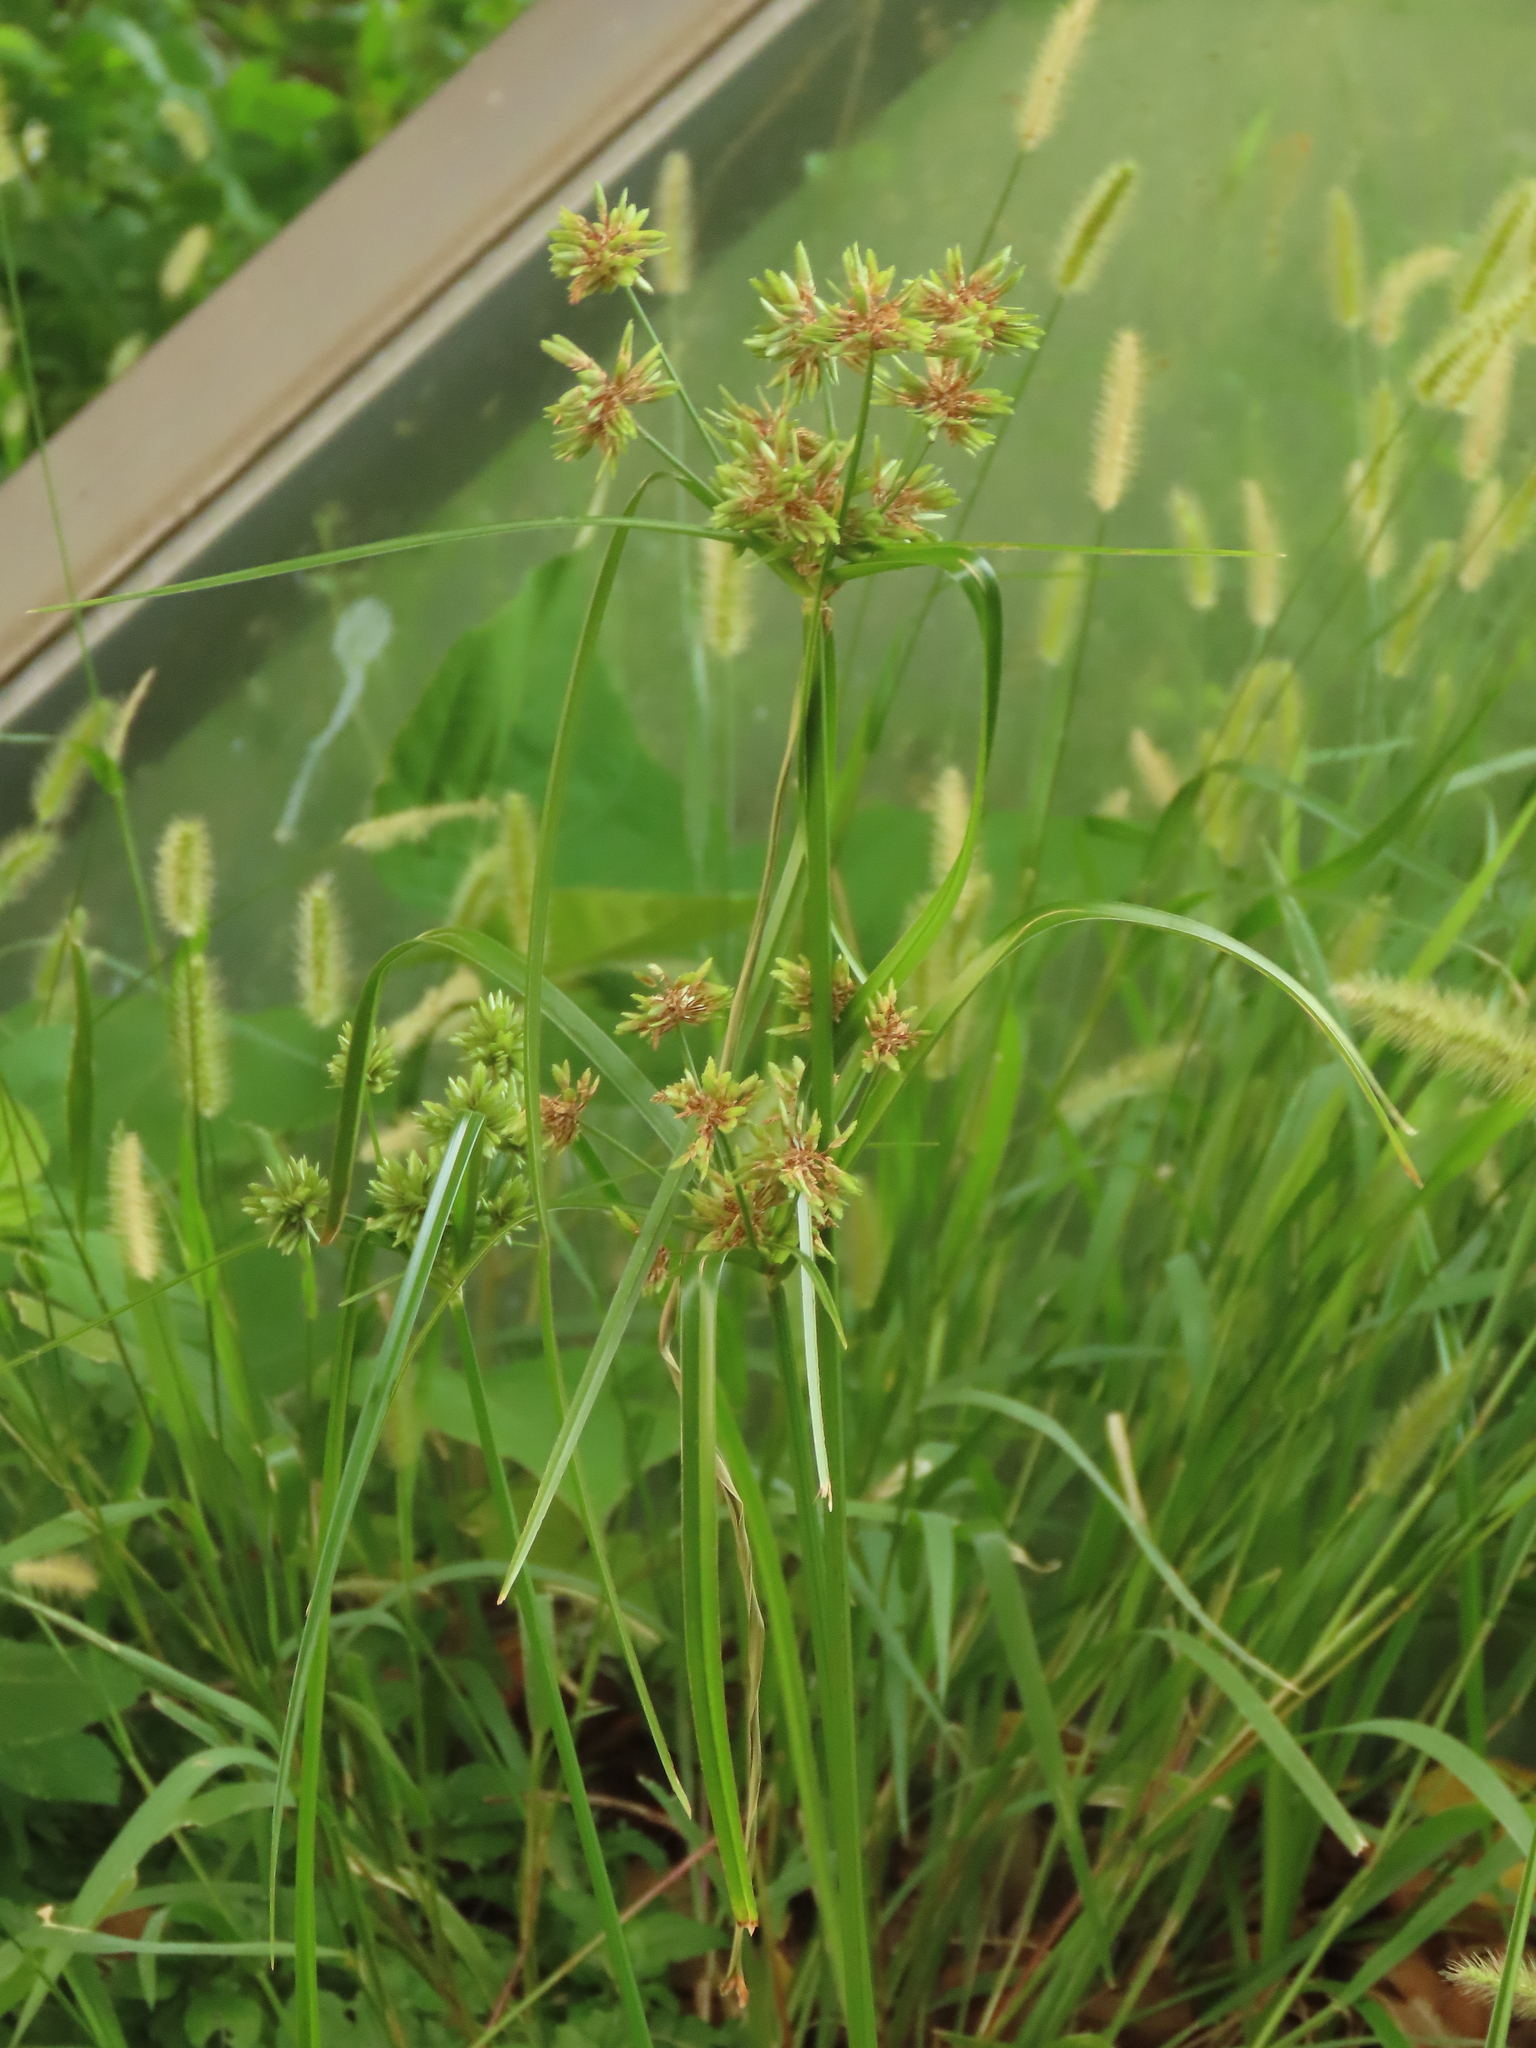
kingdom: Plantae
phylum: Tracheophyta
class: Liliopsida
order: Poales
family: Cyperaceae
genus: Cyperus
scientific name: Cyperus eragrostis
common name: Tall flatsedge
